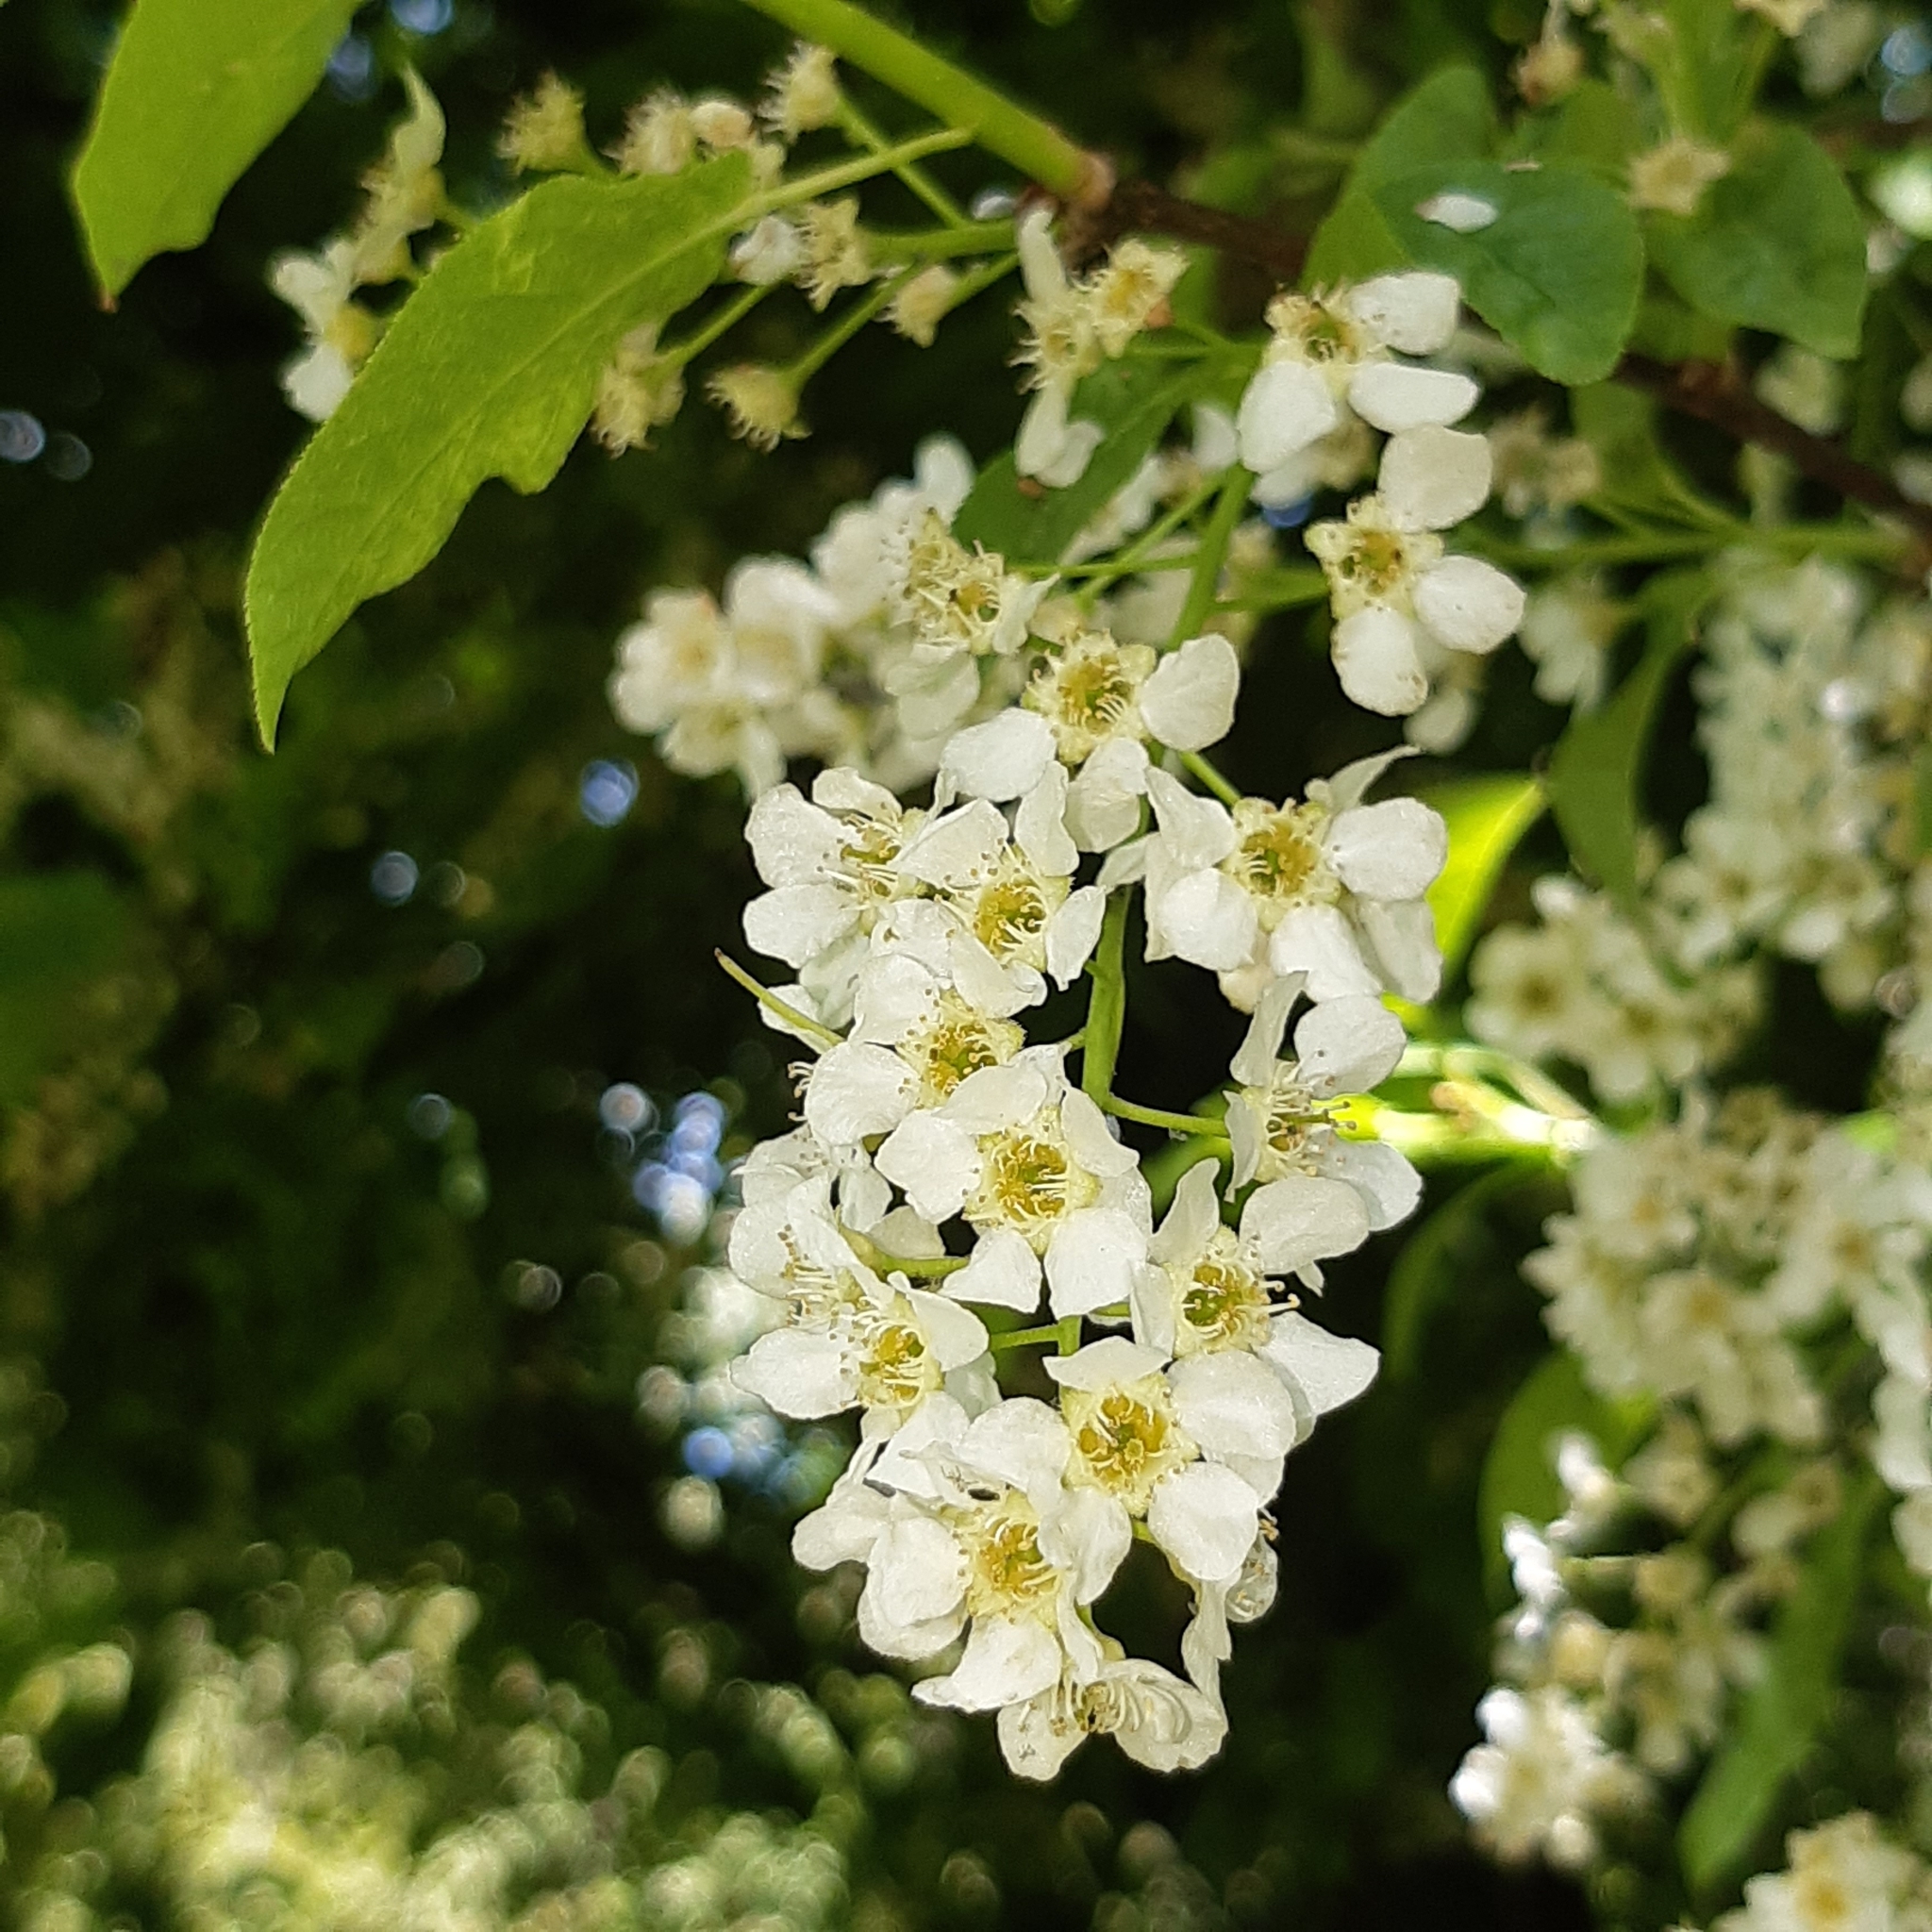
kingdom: Plantae
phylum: Tracheophyta
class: Magnoliopsida
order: Rosales
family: Rosaceae
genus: Prunus
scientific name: Prunus padus
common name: Bird cherry
